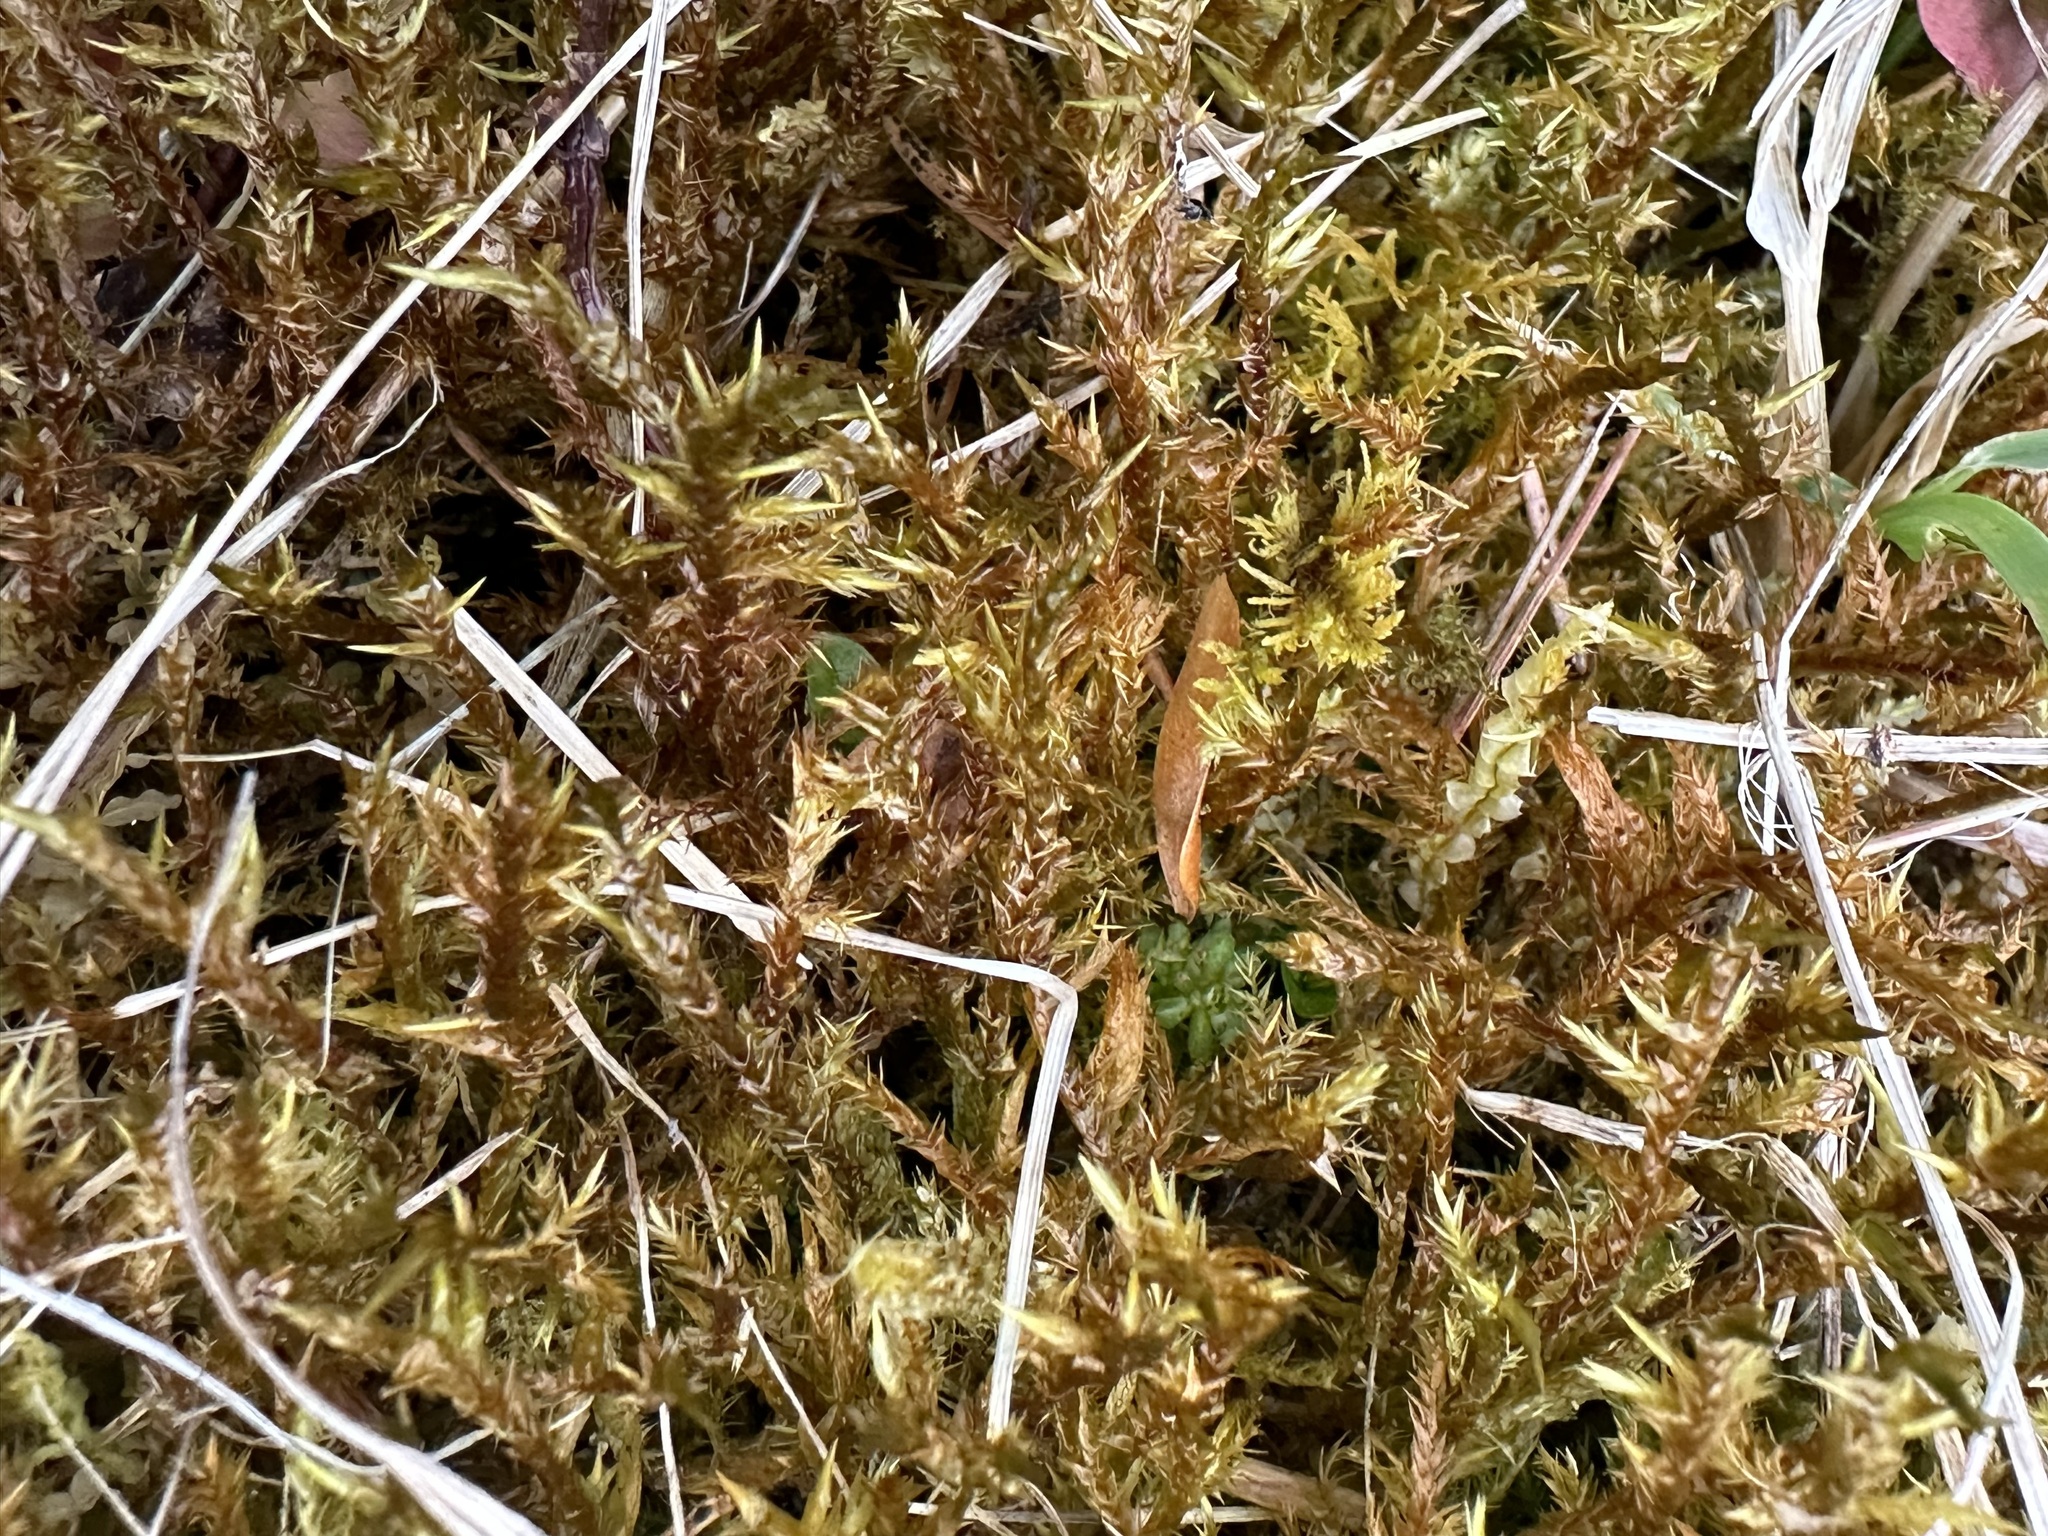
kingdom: Plantae
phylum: Bryophyta
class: Bryopsida
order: Hypnales
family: Pylaisiaceae
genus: Calliergonella
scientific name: Calliergonella cuspidata
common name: Common large wetland moss
